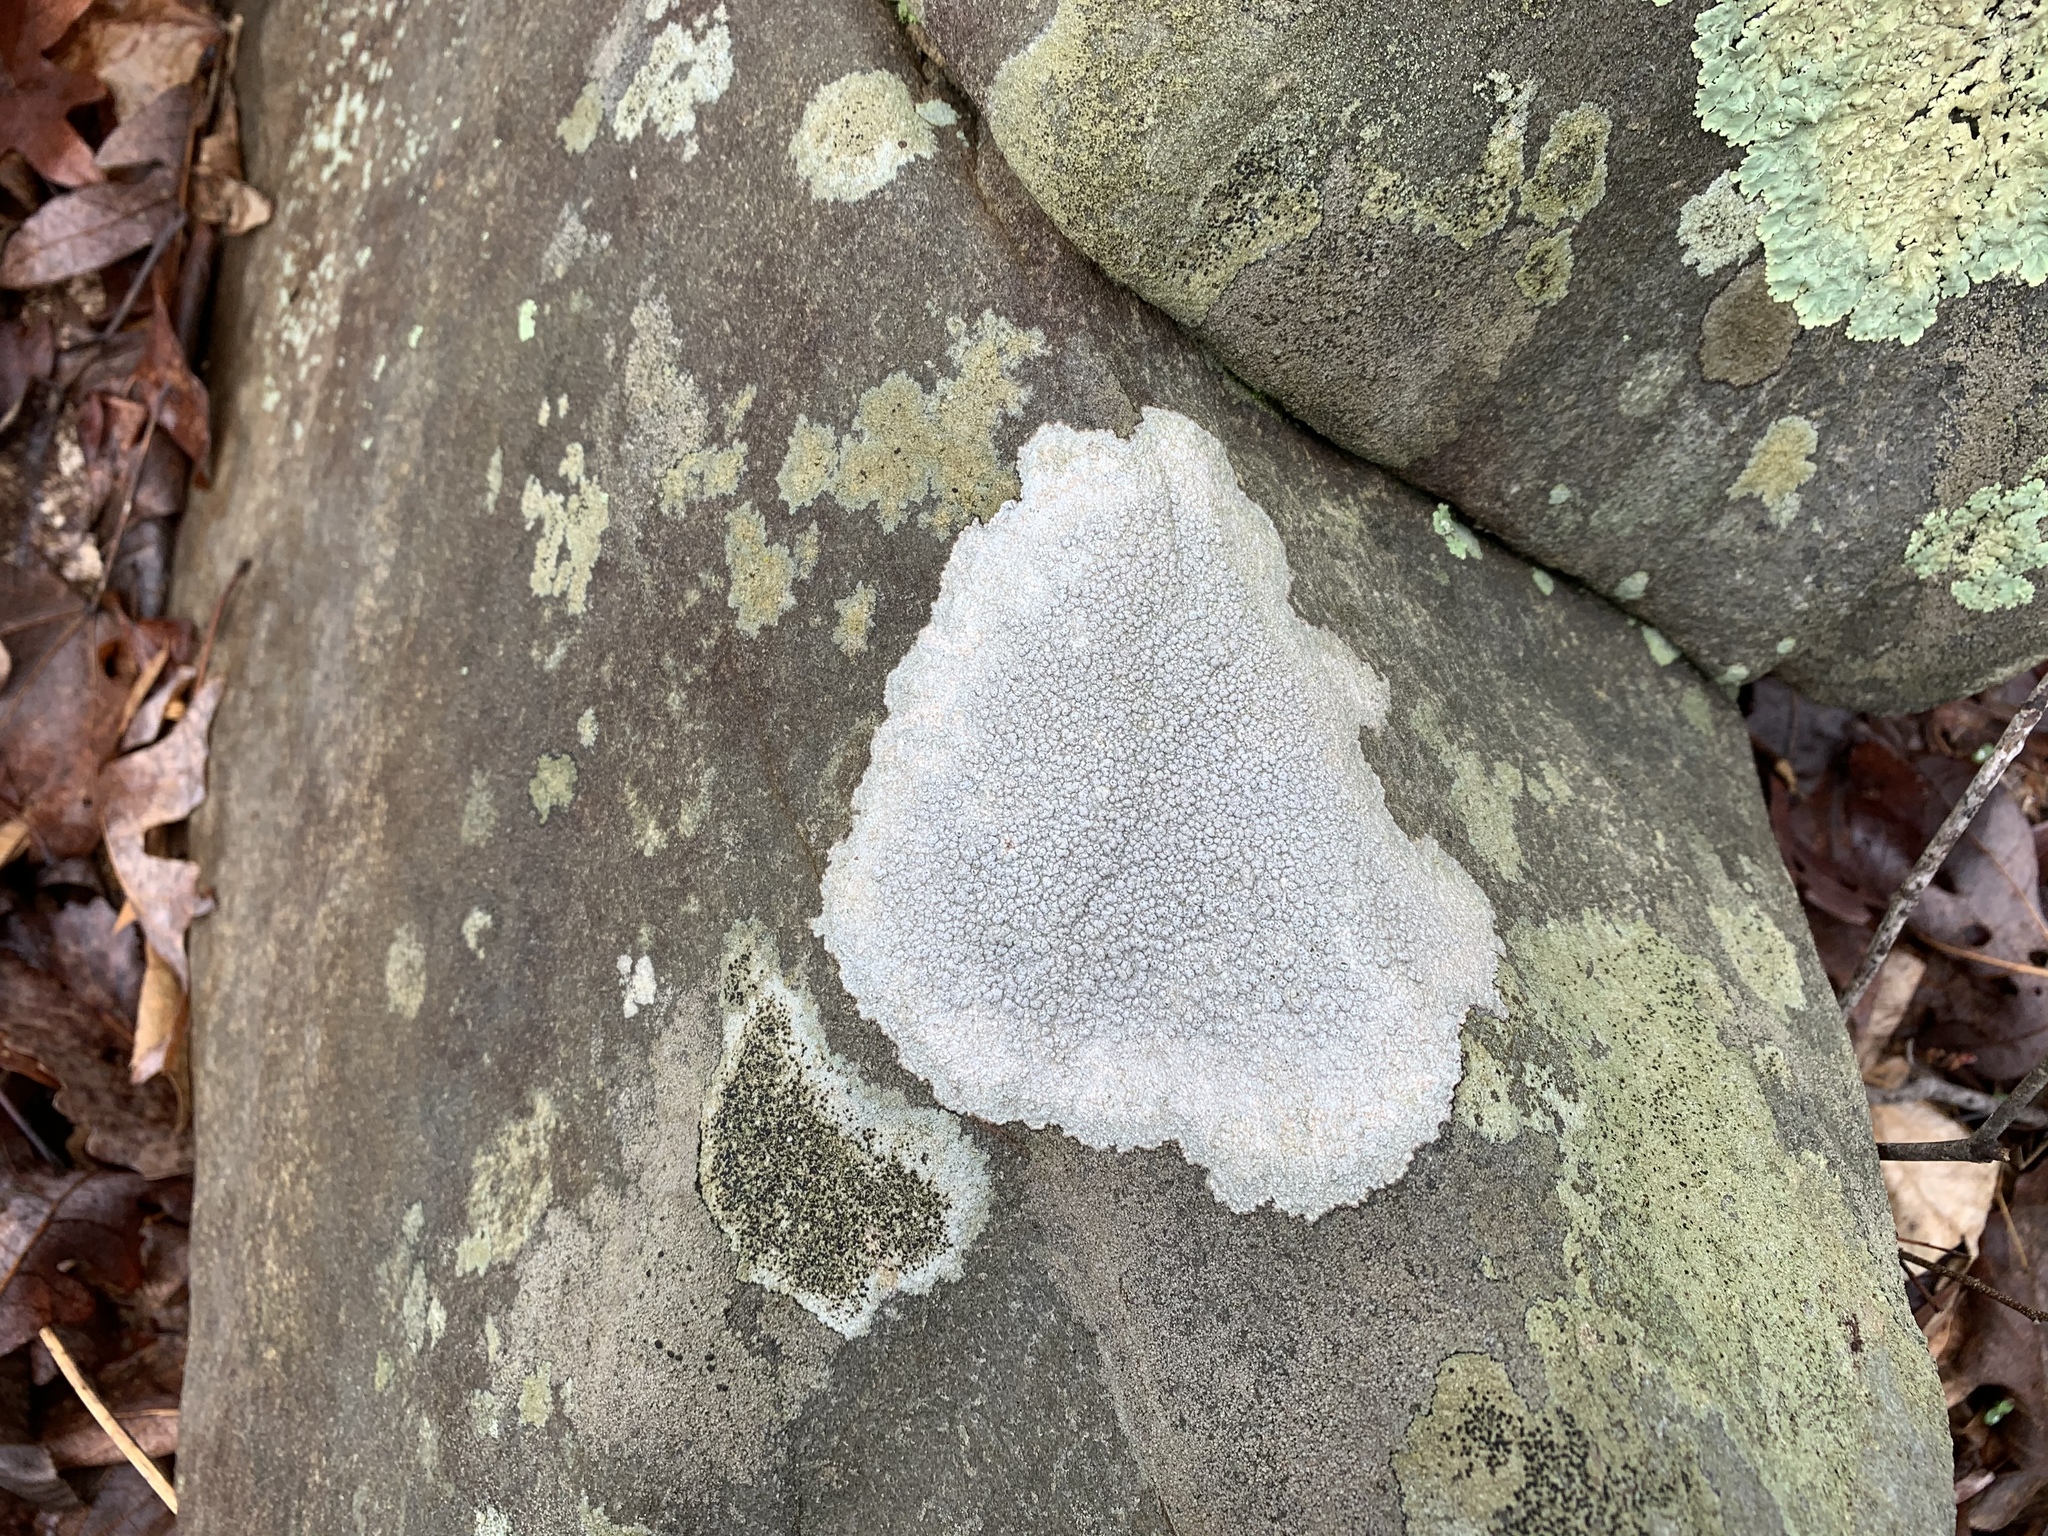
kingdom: Fungi
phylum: Ascomycota
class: Lecanoromycetes
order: Pertusariales
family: Pertusariaceae
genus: Pertusaria
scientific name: Pertusaria plittiana
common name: Rock wart lichen
